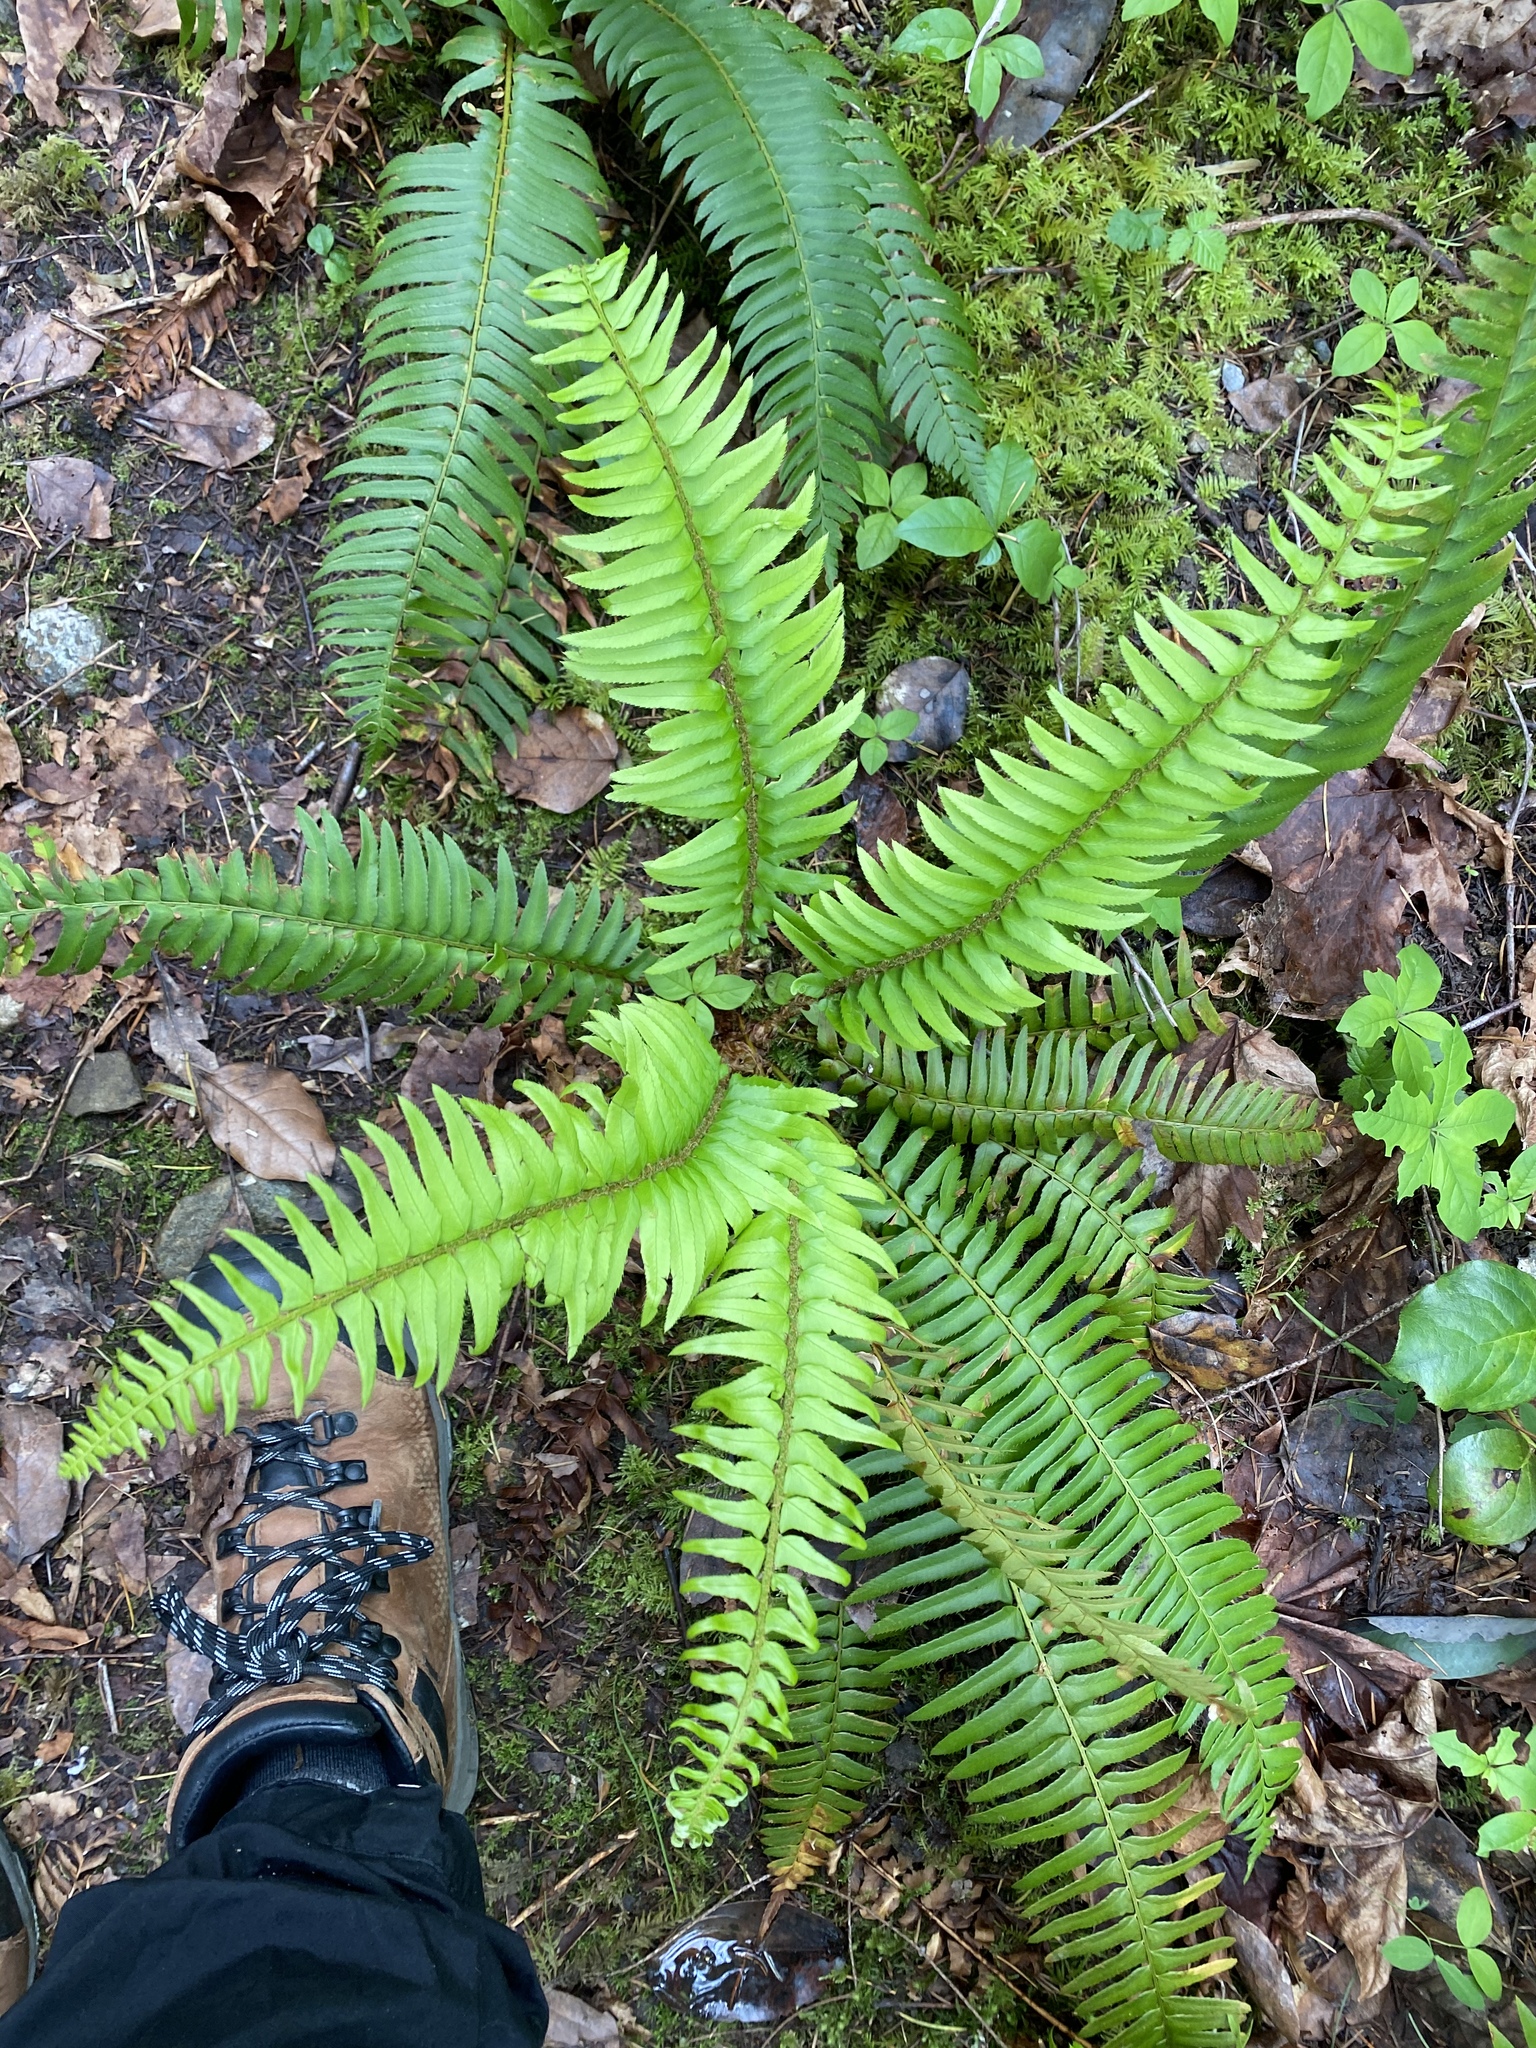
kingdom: Plantae
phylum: Tracheophyta
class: Polypodiopsida
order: Polypodiales
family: Dryopteridaceae
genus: Polystichum
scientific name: Polystichum munitum
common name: Western sword-fern
